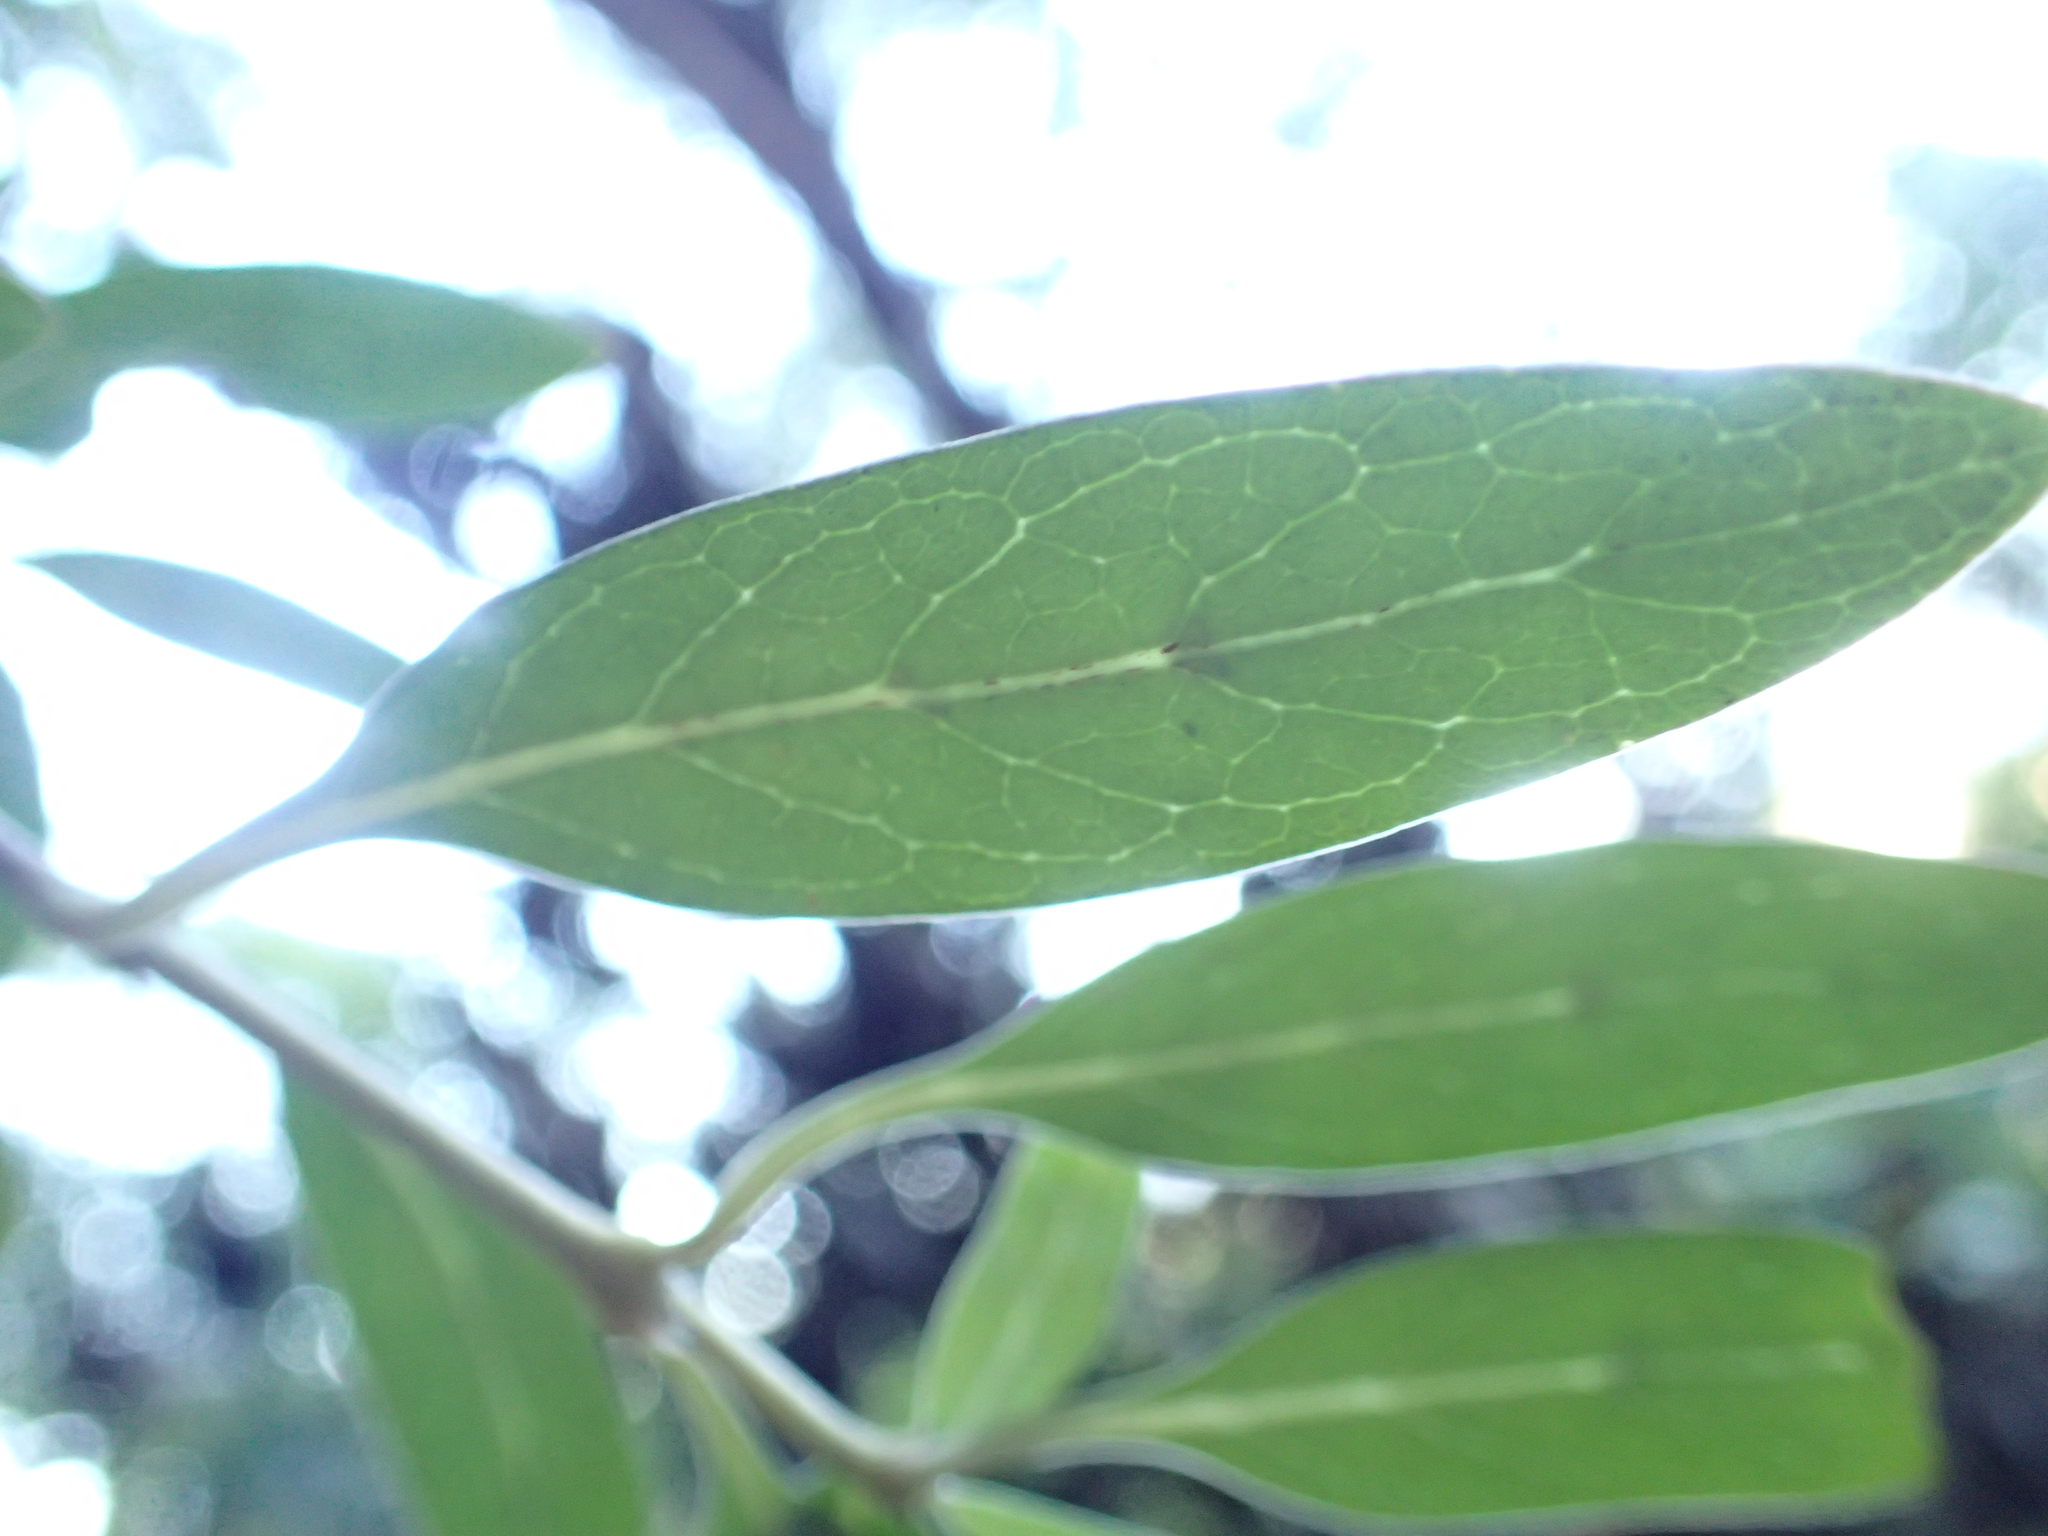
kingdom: Plantae
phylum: Tracheophyta
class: Magnoliopsida
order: Gentianales
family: Rubiaceae
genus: Coprosma
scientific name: Coprosma cunninghamii
